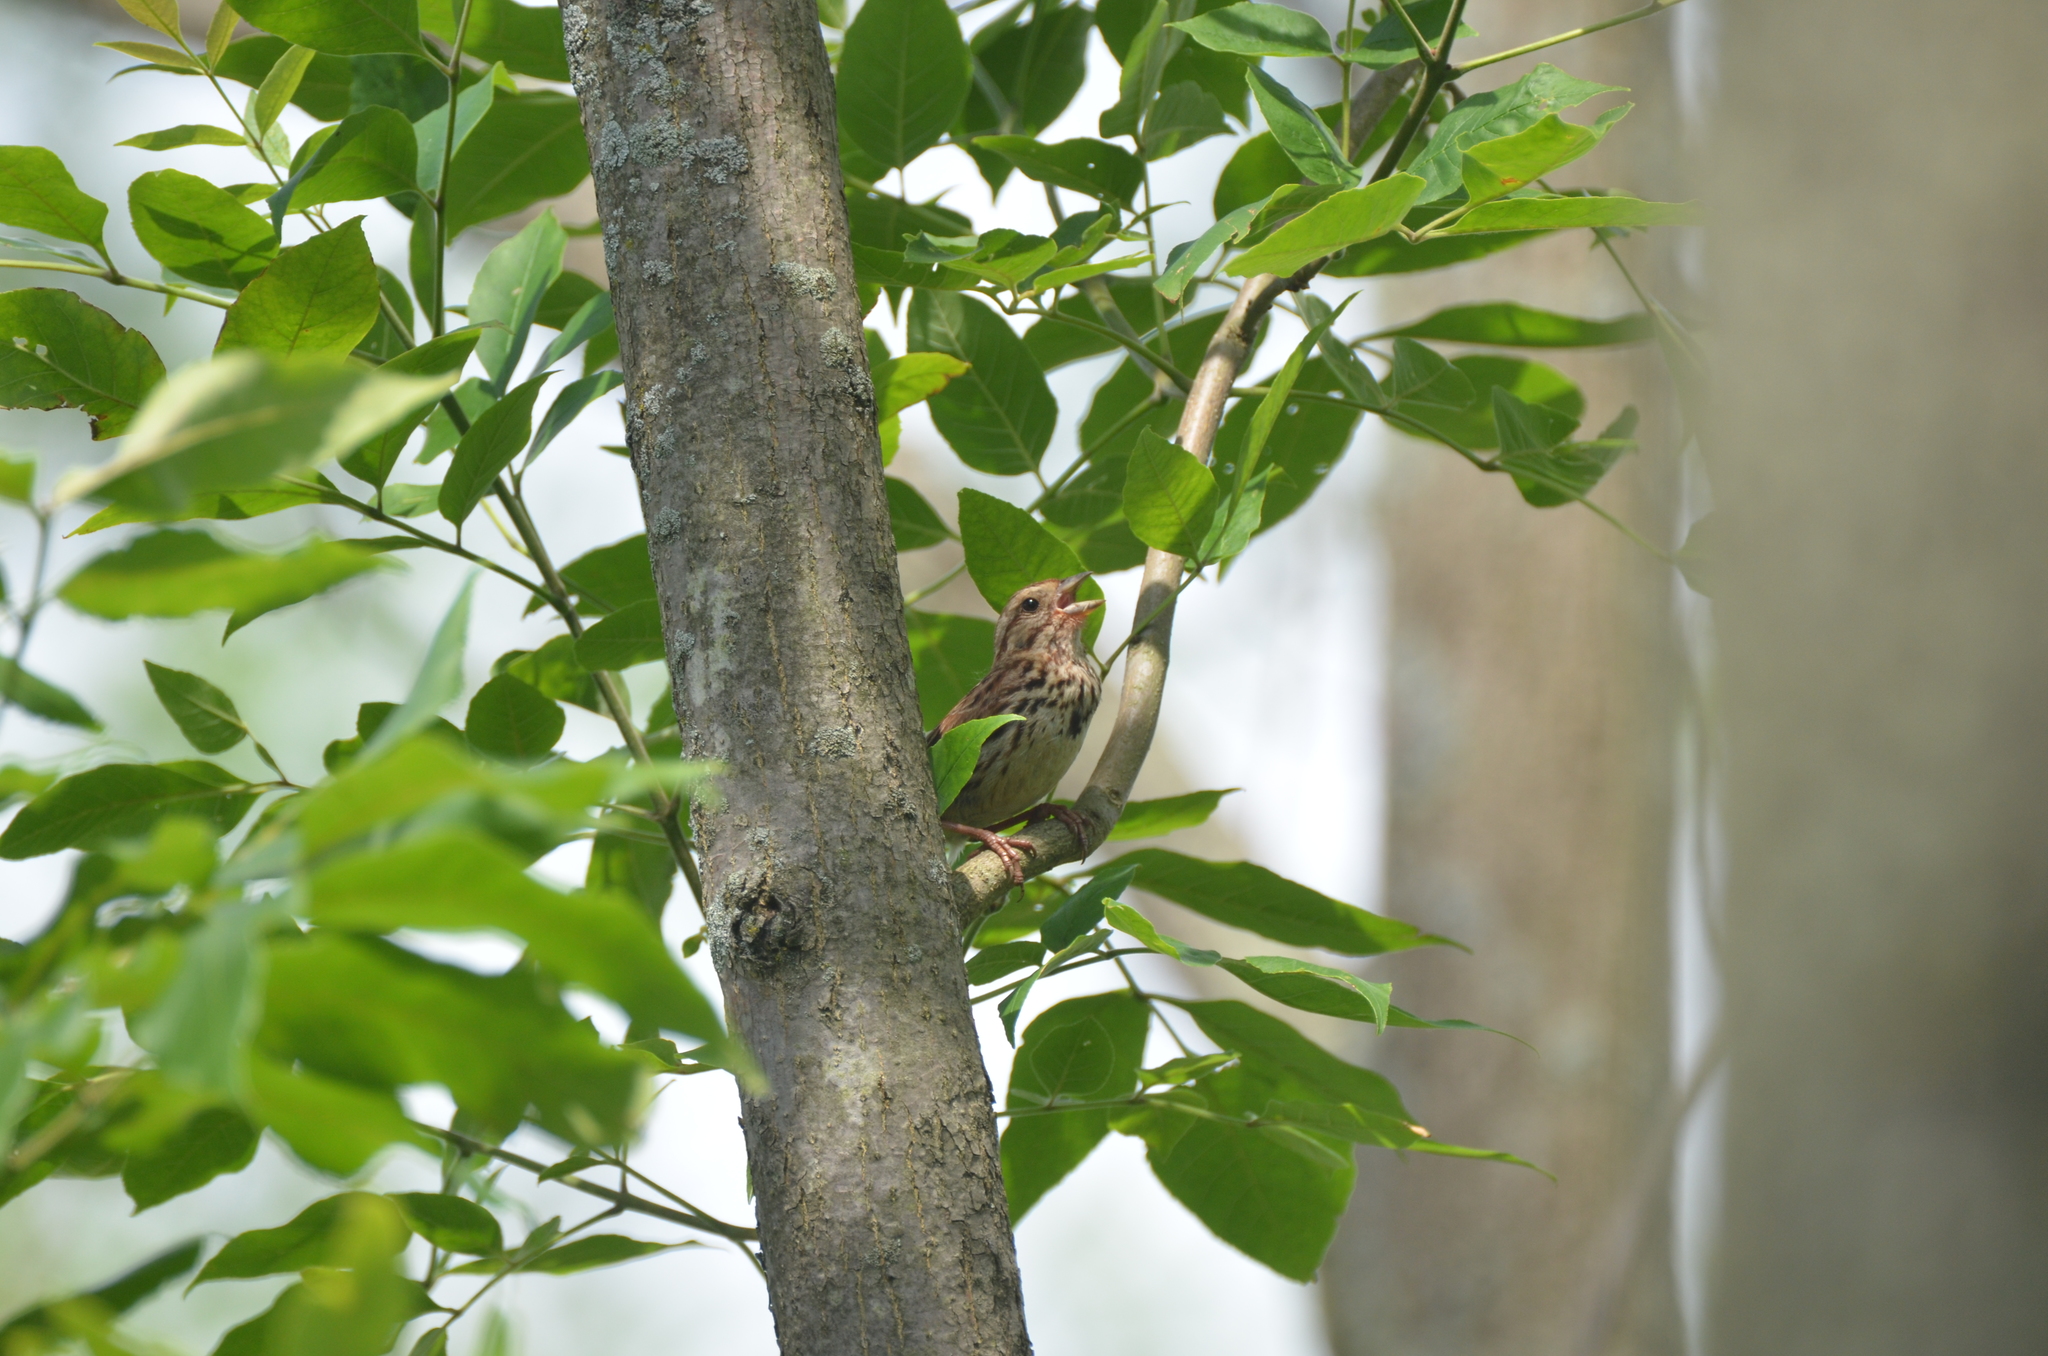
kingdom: Animalia
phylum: Chordata
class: Aves
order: Passeriformes
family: Passerellidae
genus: Melospiza
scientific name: Melospiza melodia
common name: Song sparrow
